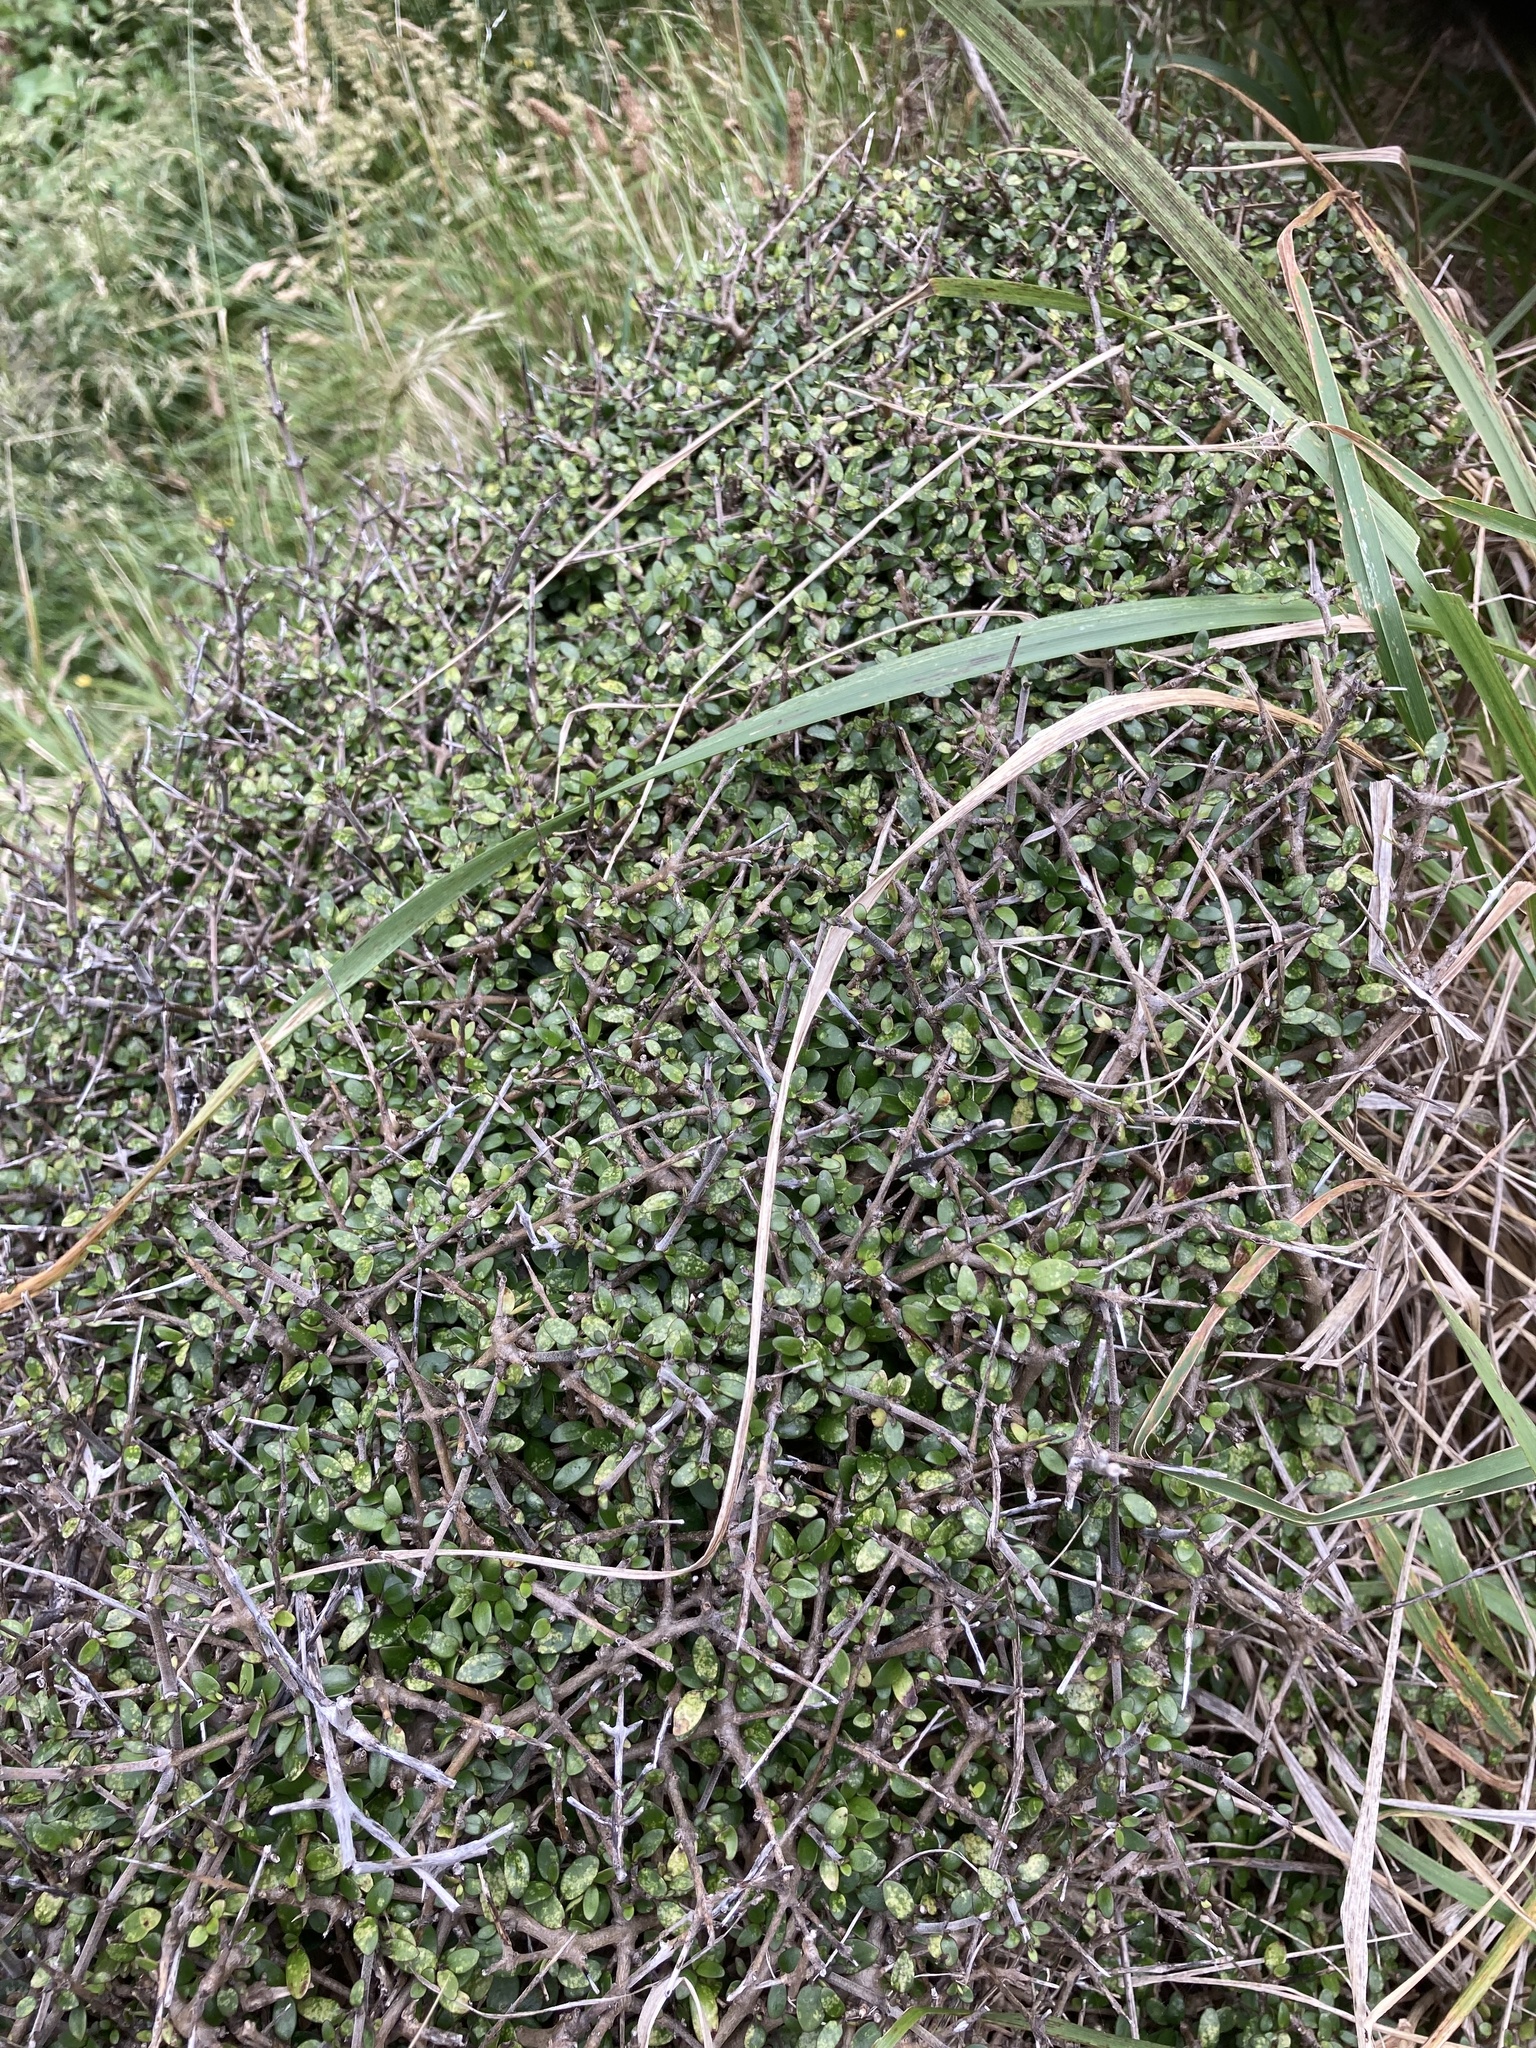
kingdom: Plantae
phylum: Tracheophyta
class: Magnoliopsida
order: Gentianales
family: Rubiaceae
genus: Coprosma
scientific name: Coprosma propinqua
